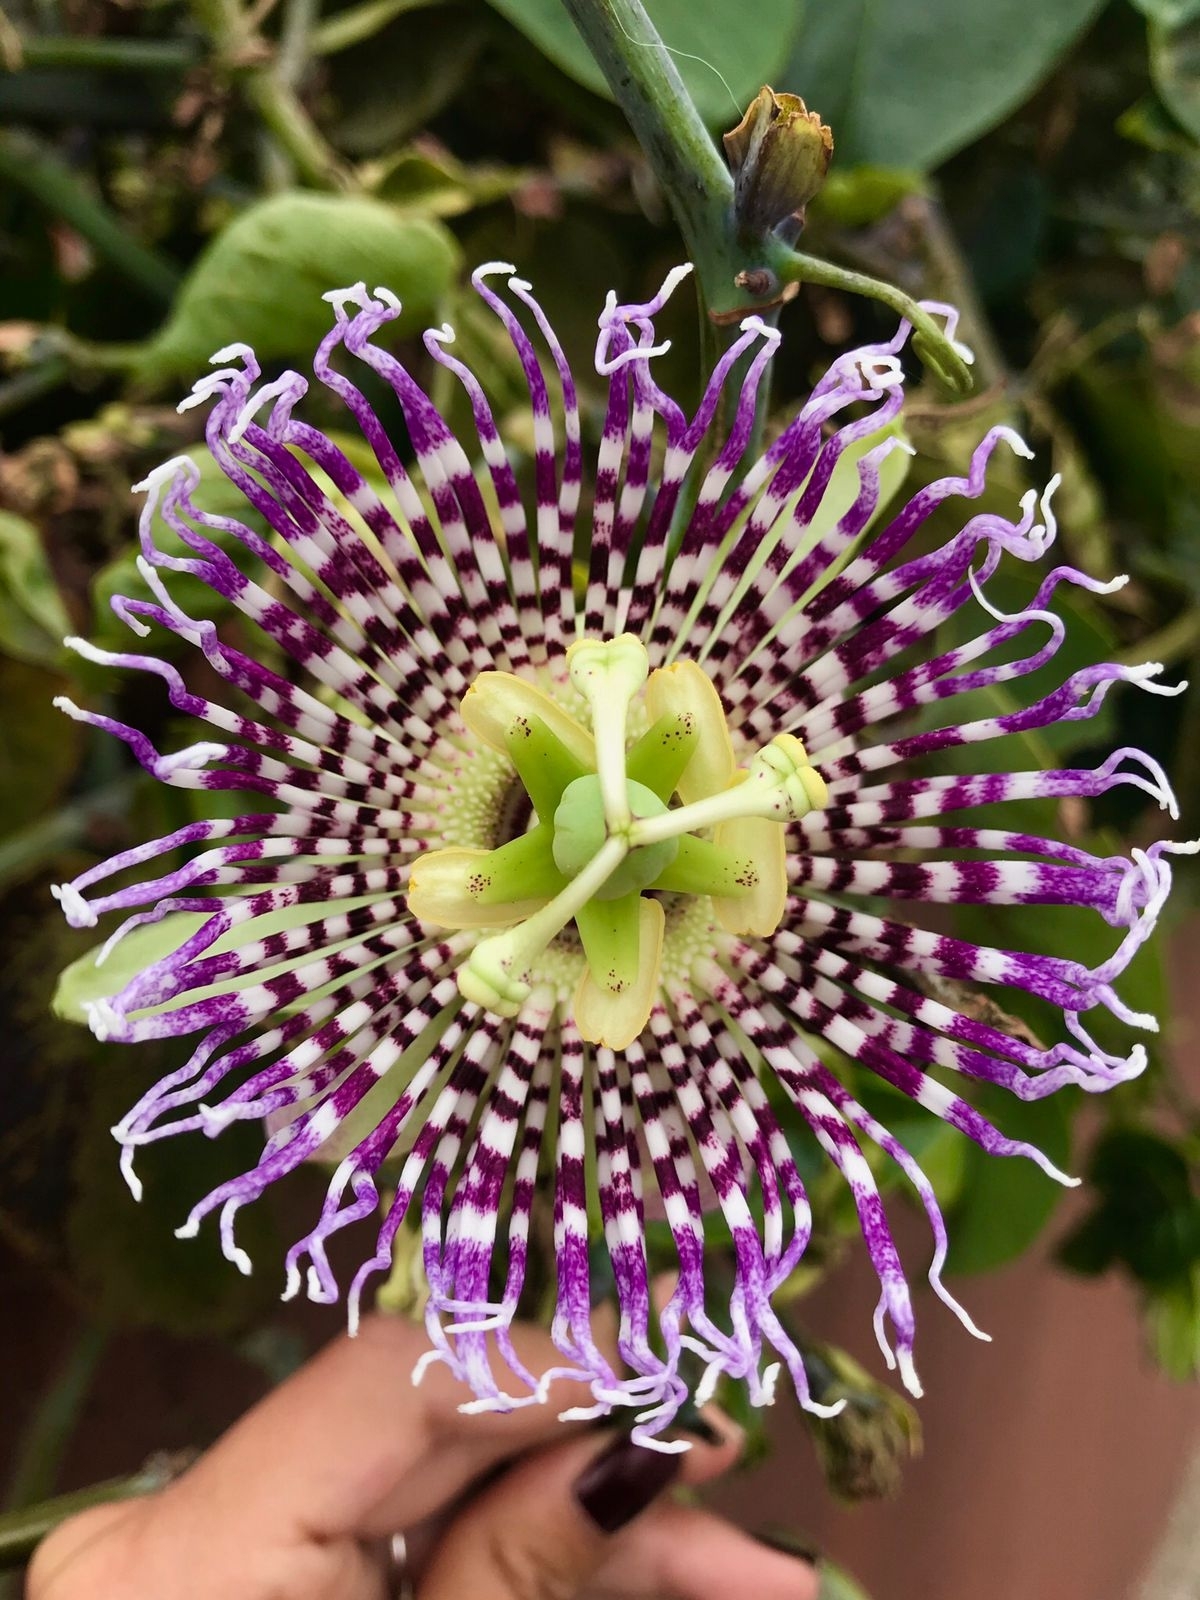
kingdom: Plantae
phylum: Tracheophyta
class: Magnoliopsida
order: Malpighiales
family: Passifloraceae
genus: Passiflora
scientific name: Passiflora ligularis
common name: Sweet granadilla
